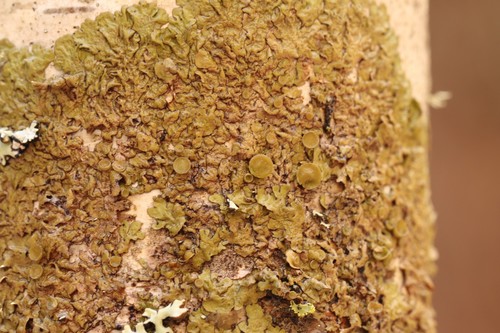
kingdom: Fungi
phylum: Ascomycota
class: Lecanoromycetes
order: Lecanorales
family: Parmeliaceae
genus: Melanohalea
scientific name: Melanohalea olivacea
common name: Spotted camouflage lichen
